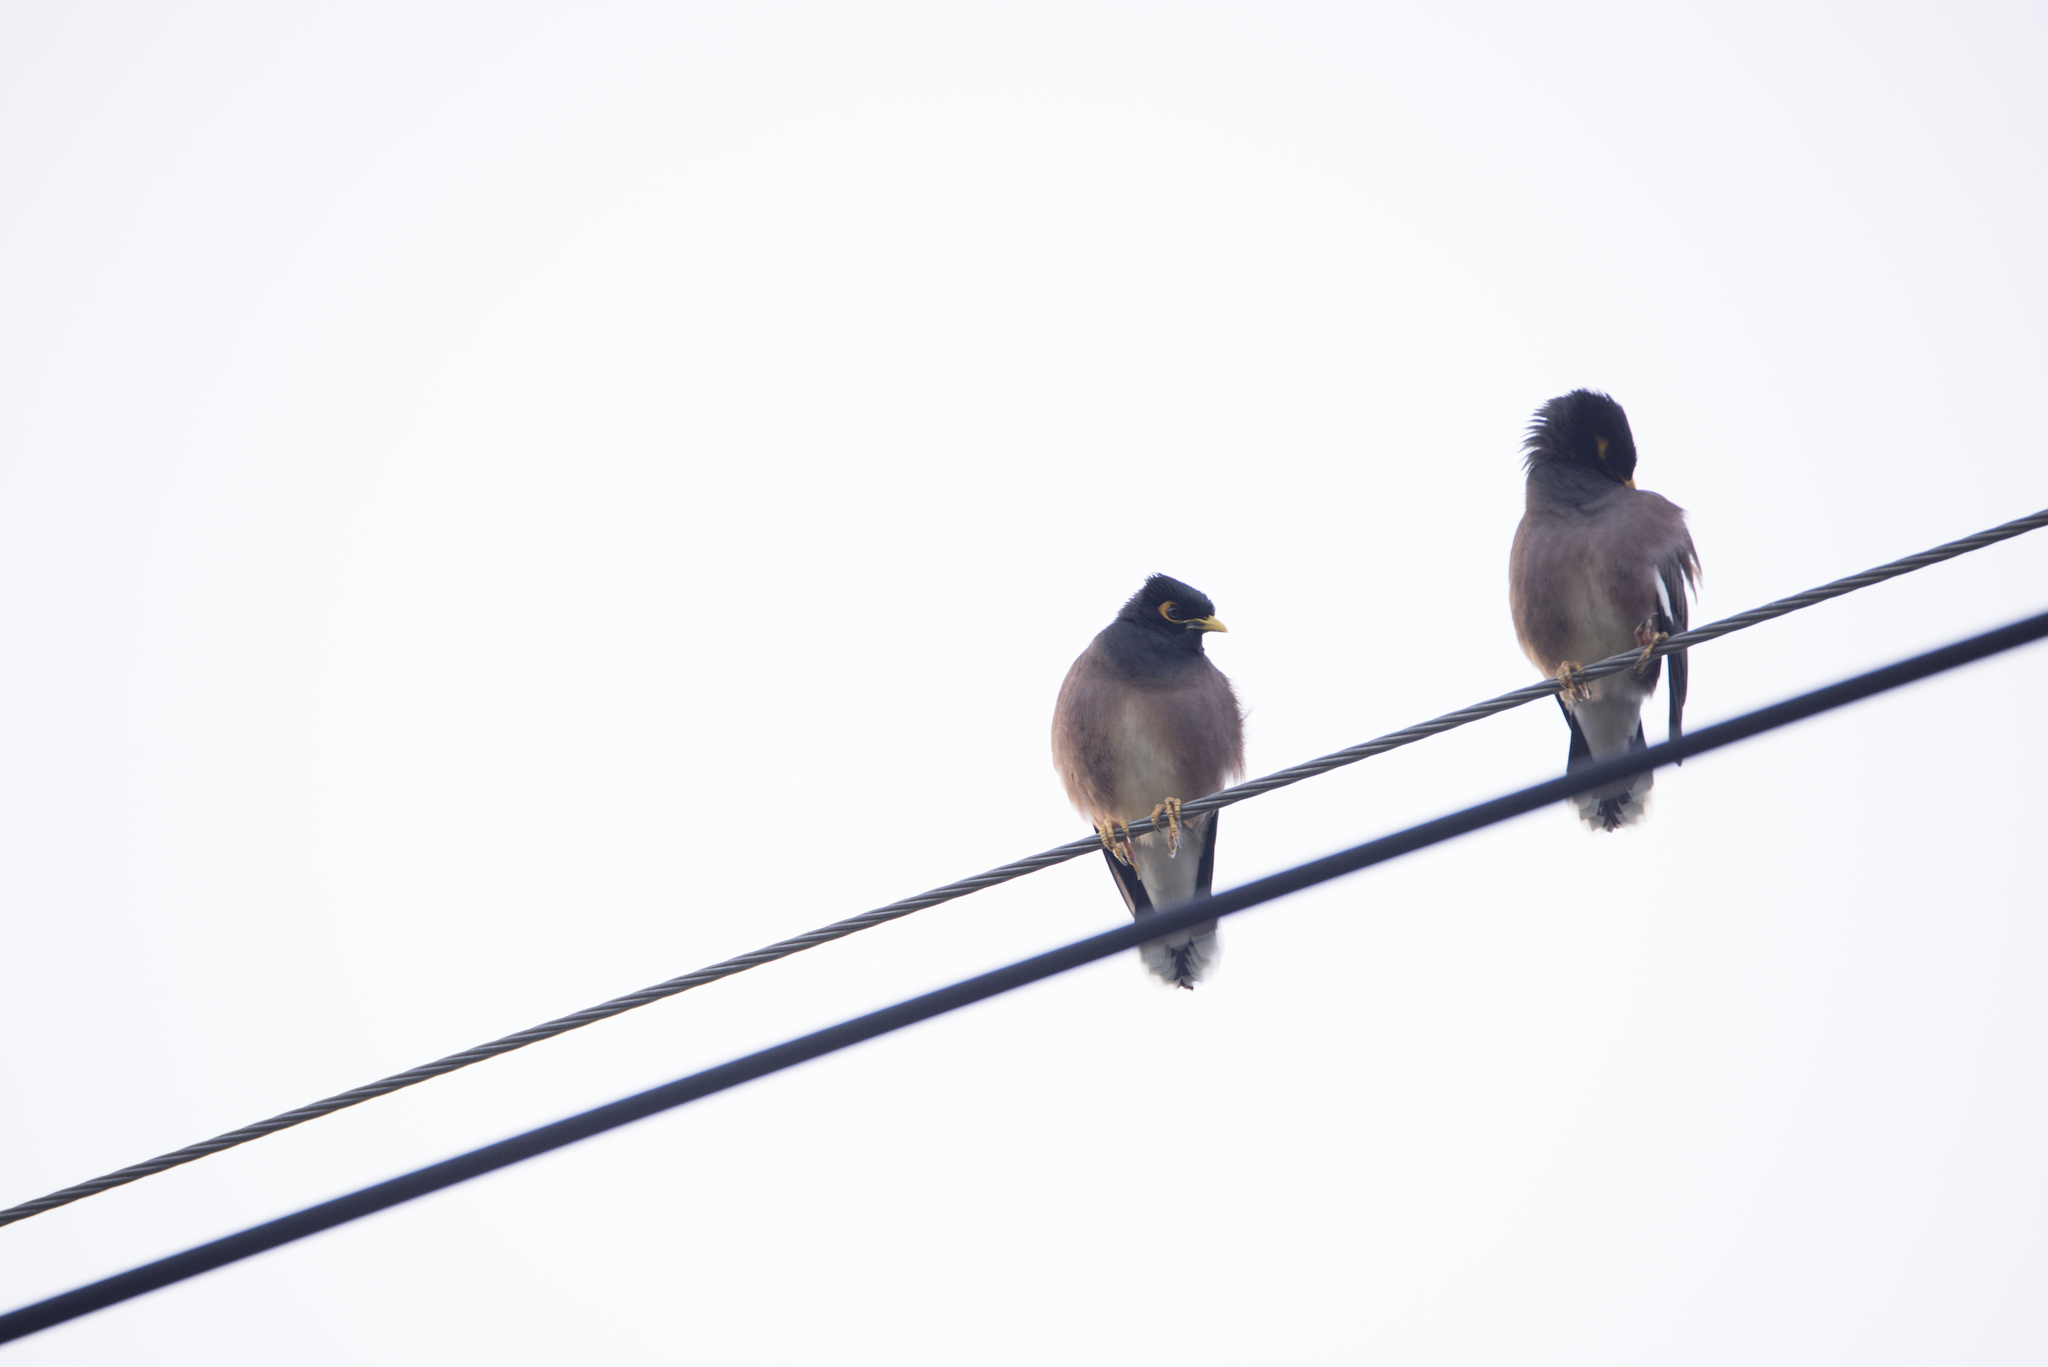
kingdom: Animalia
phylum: Chordata
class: Aves
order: Passeriformes
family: Sturnidae
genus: Acridotheres
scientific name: Acridotheres tristis
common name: Common myna
